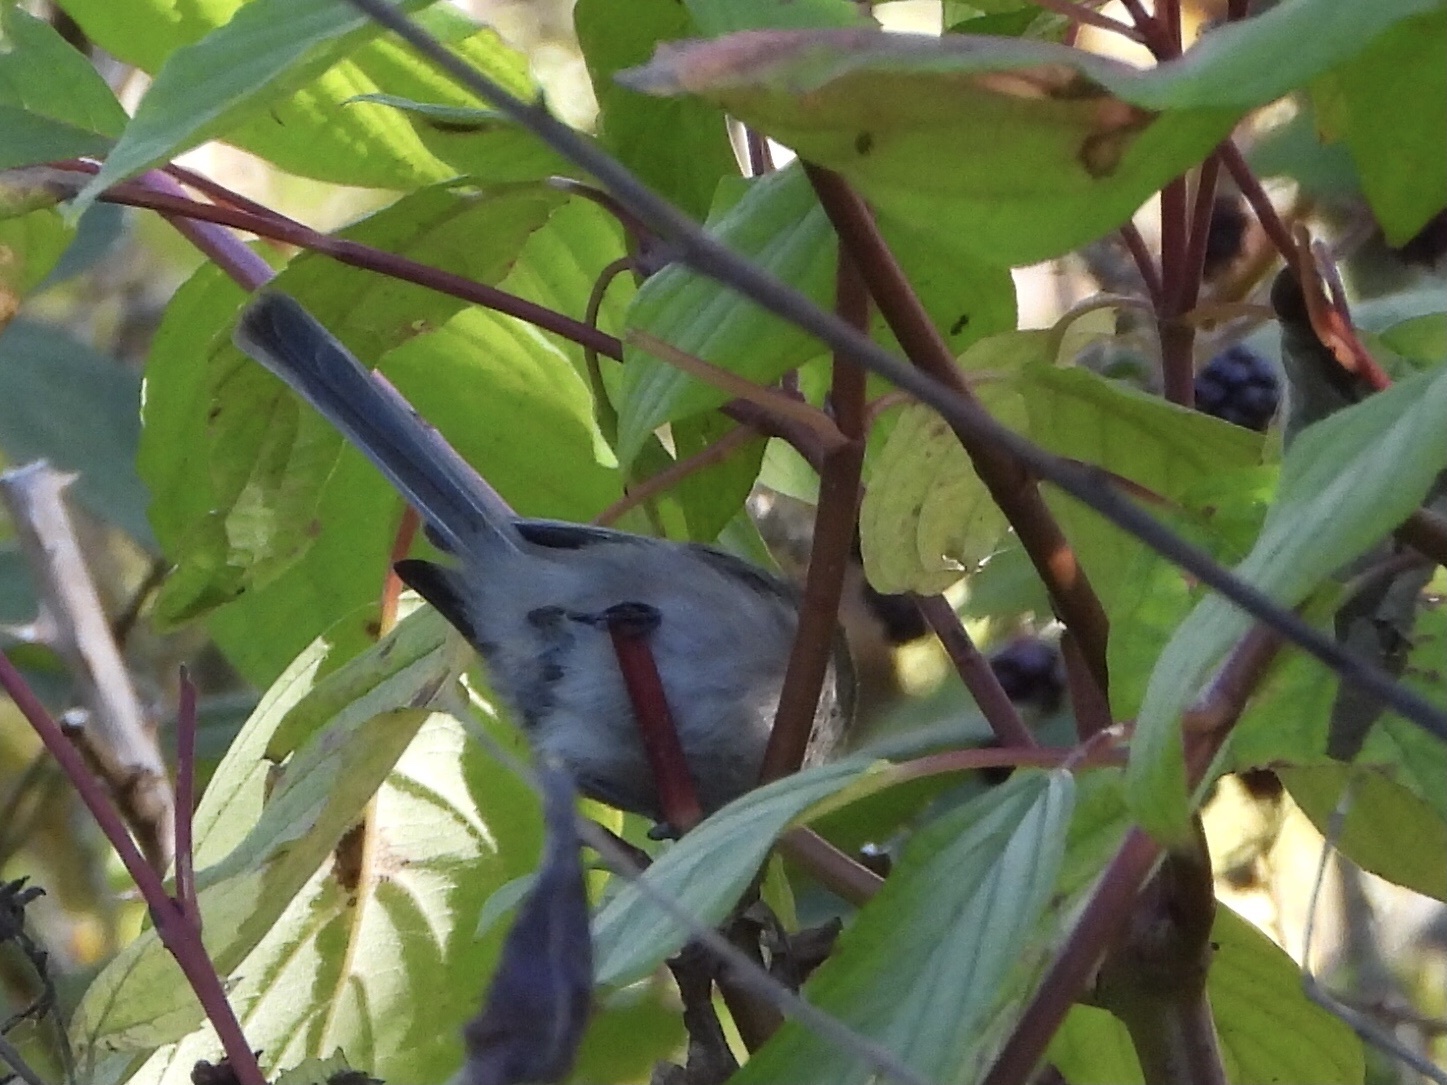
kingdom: Animalia
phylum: Chordata
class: Aves
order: Passeriformes
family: Aegithalidae
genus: Psaltriparus
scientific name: Psaltriparus minimus
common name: American bushtit
